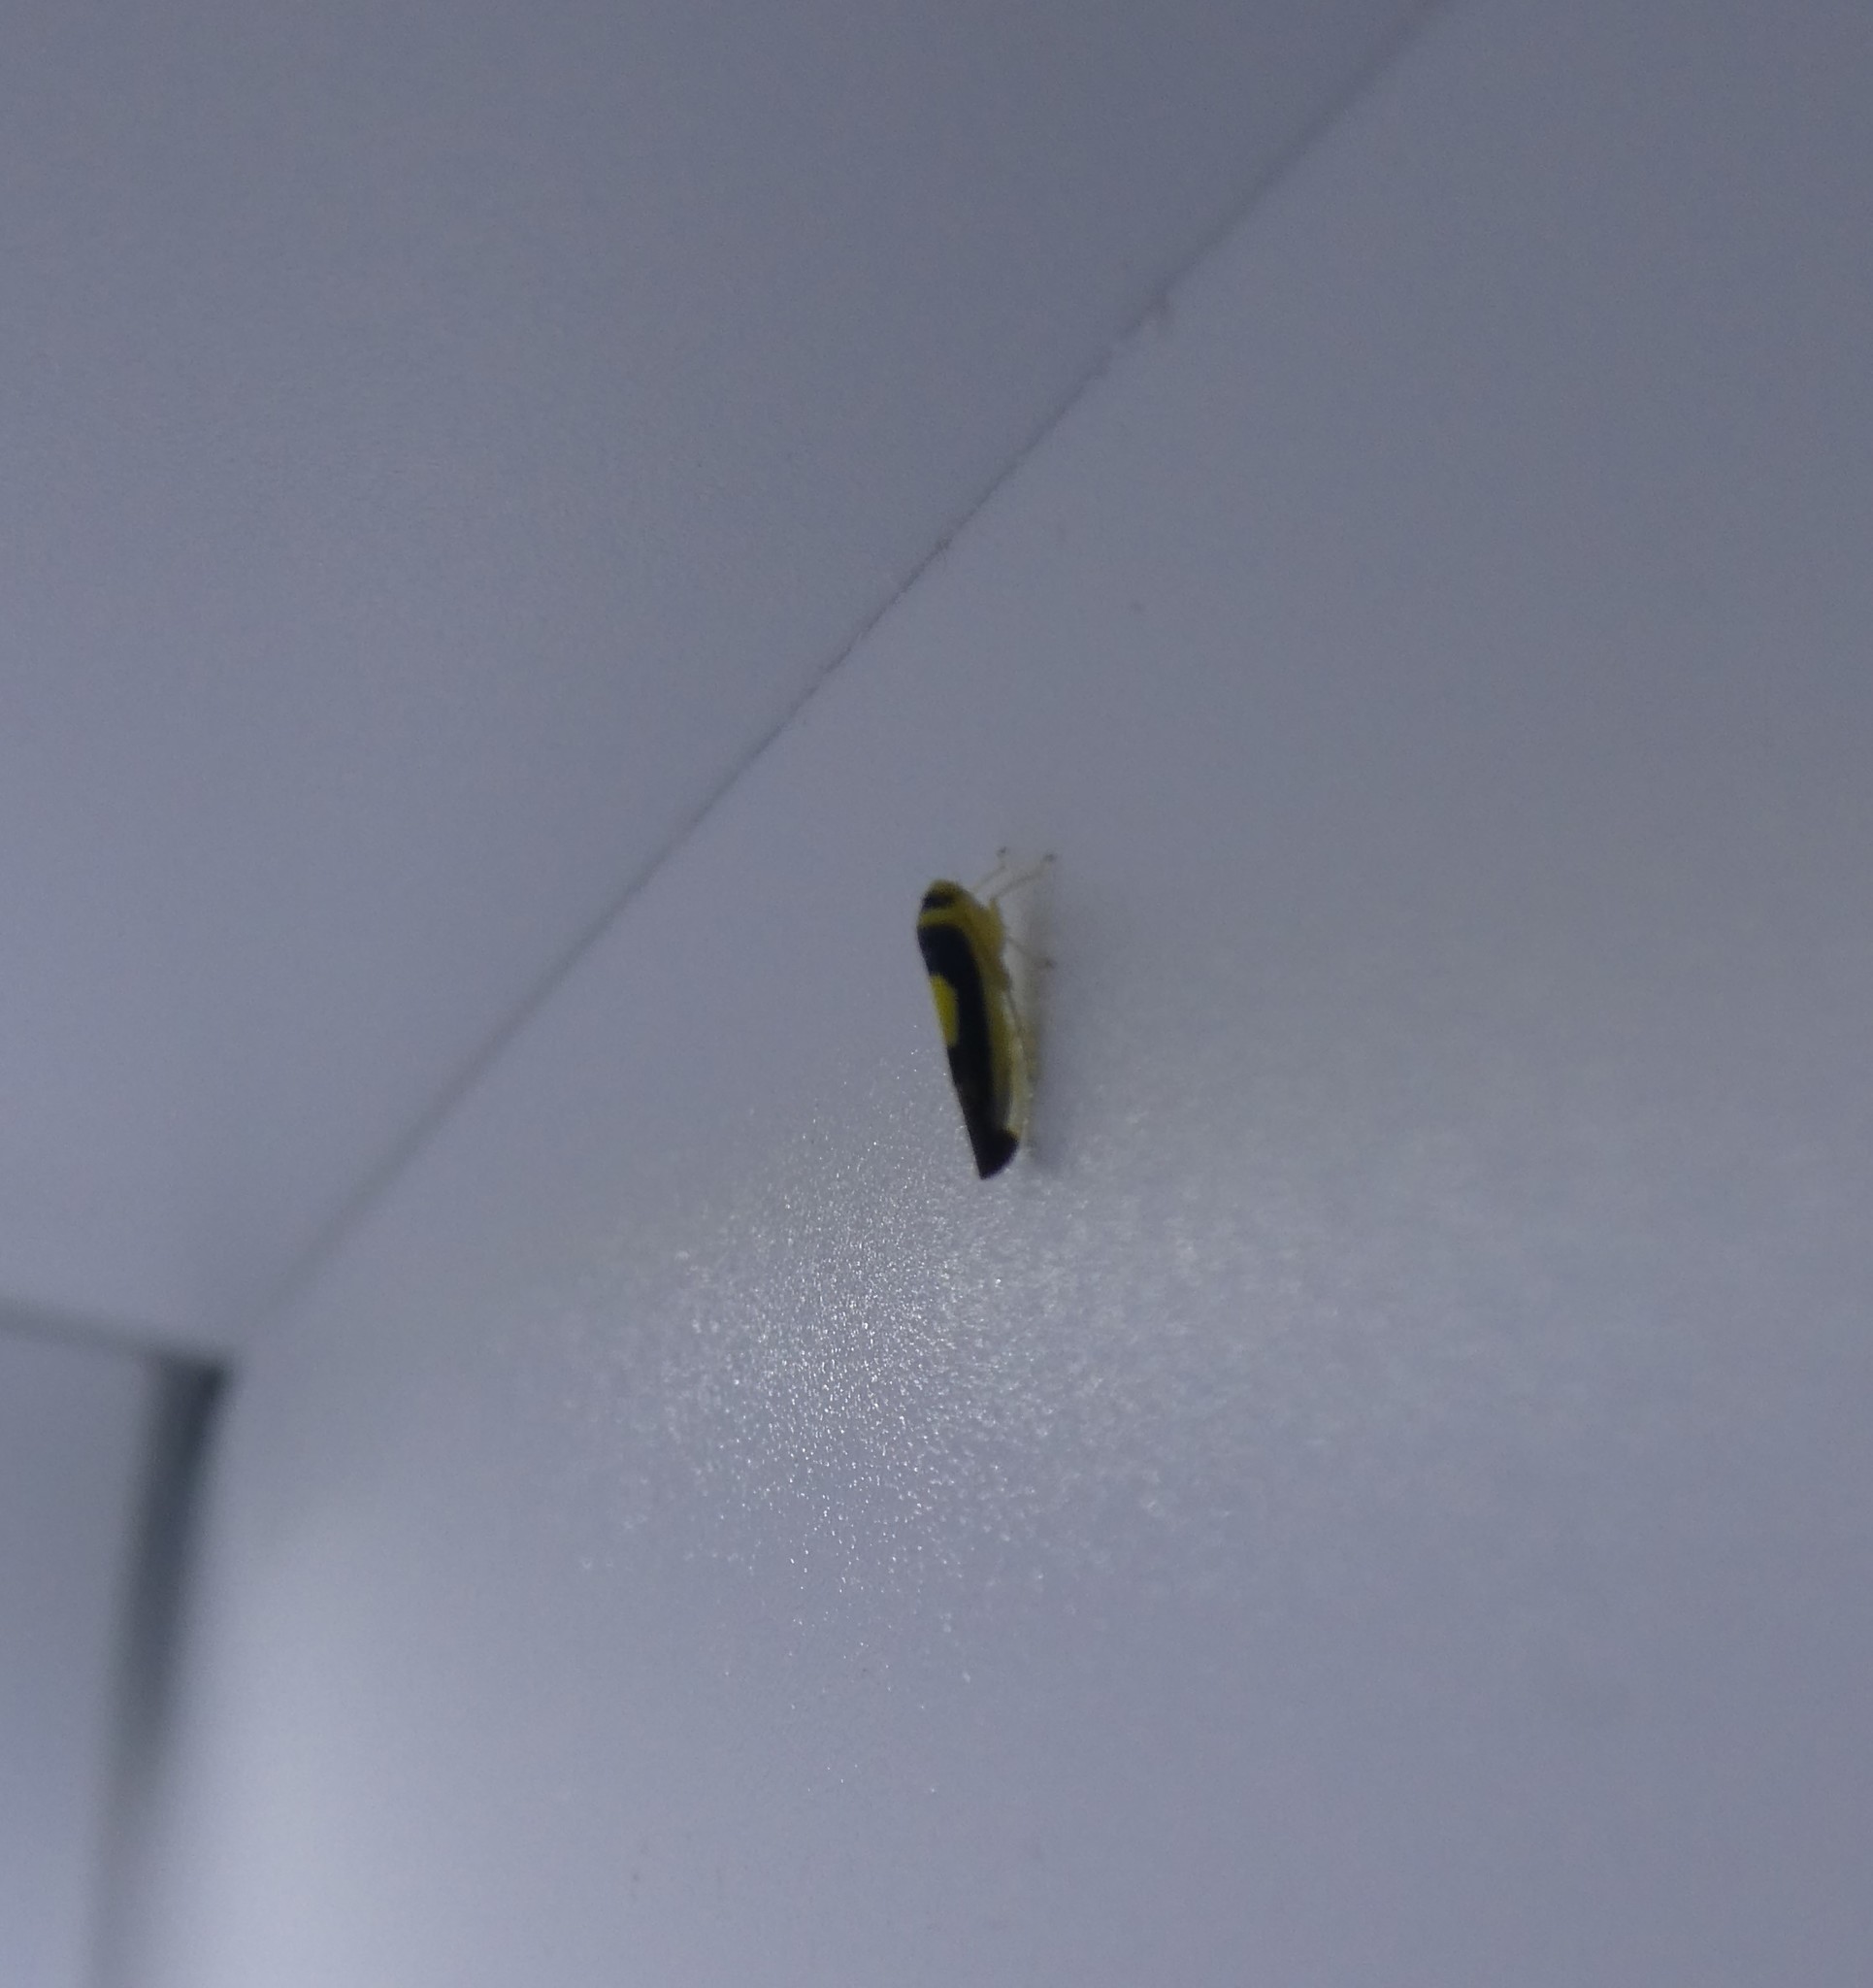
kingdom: Animalia
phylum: Arthropoda
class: Insecta
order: Hemiptera
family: Cicadellidae
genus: Colladonus
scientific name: Colladonus clitellarius
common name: The saddleback leafhopper
